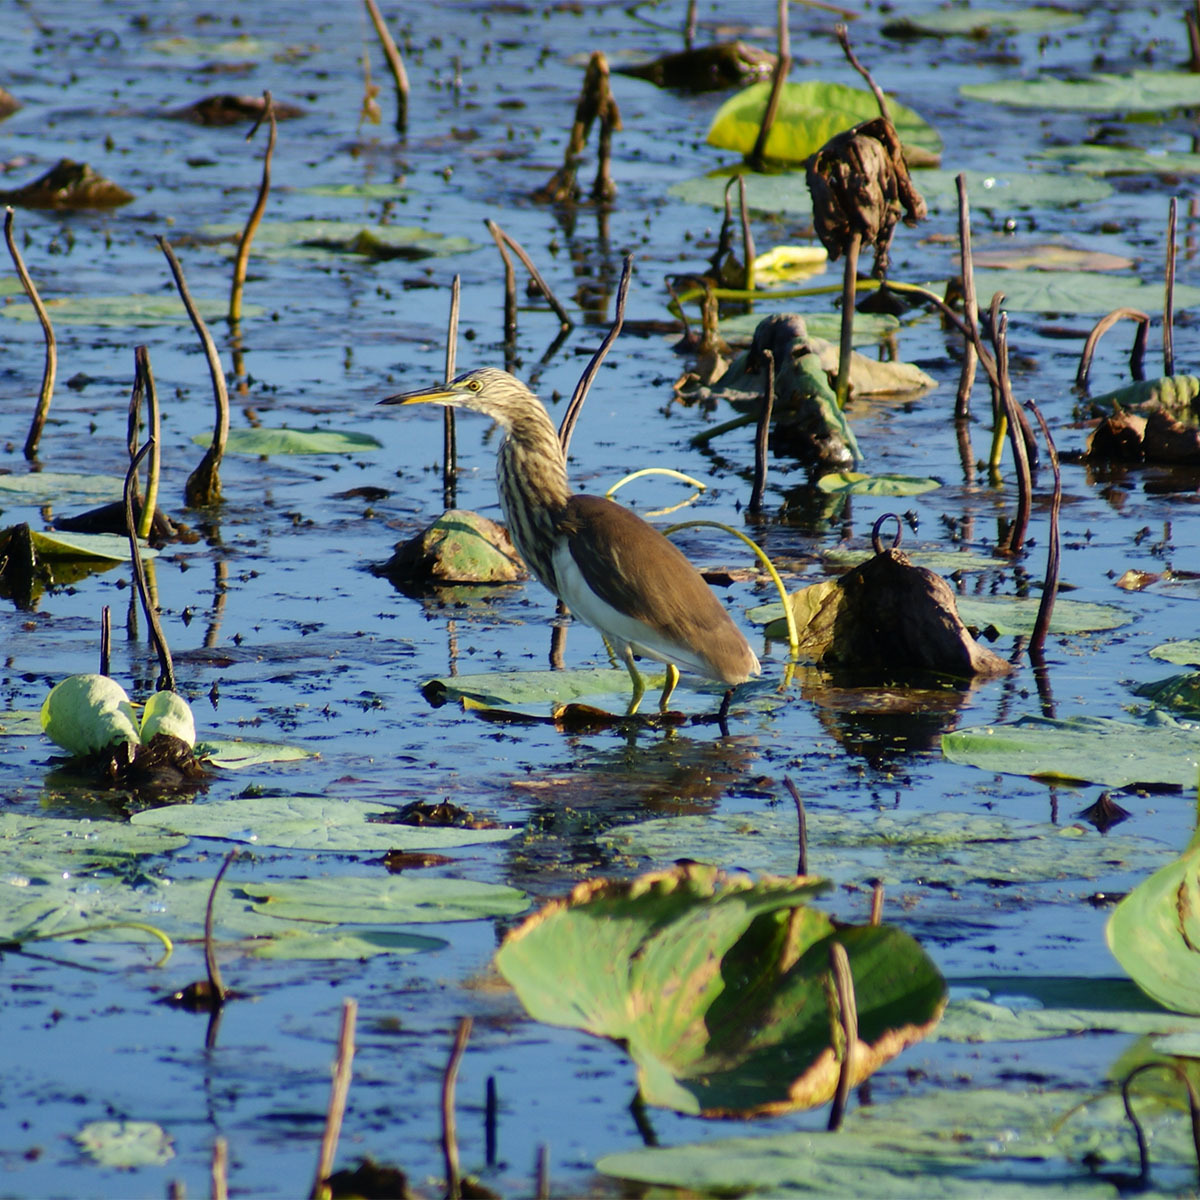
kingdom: Animalia
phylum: Chordata
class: Aves
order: Pelecaniformes
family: Ardeidae
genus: Ardeola
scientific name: Ardeola grayii
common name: Indian pond heron
